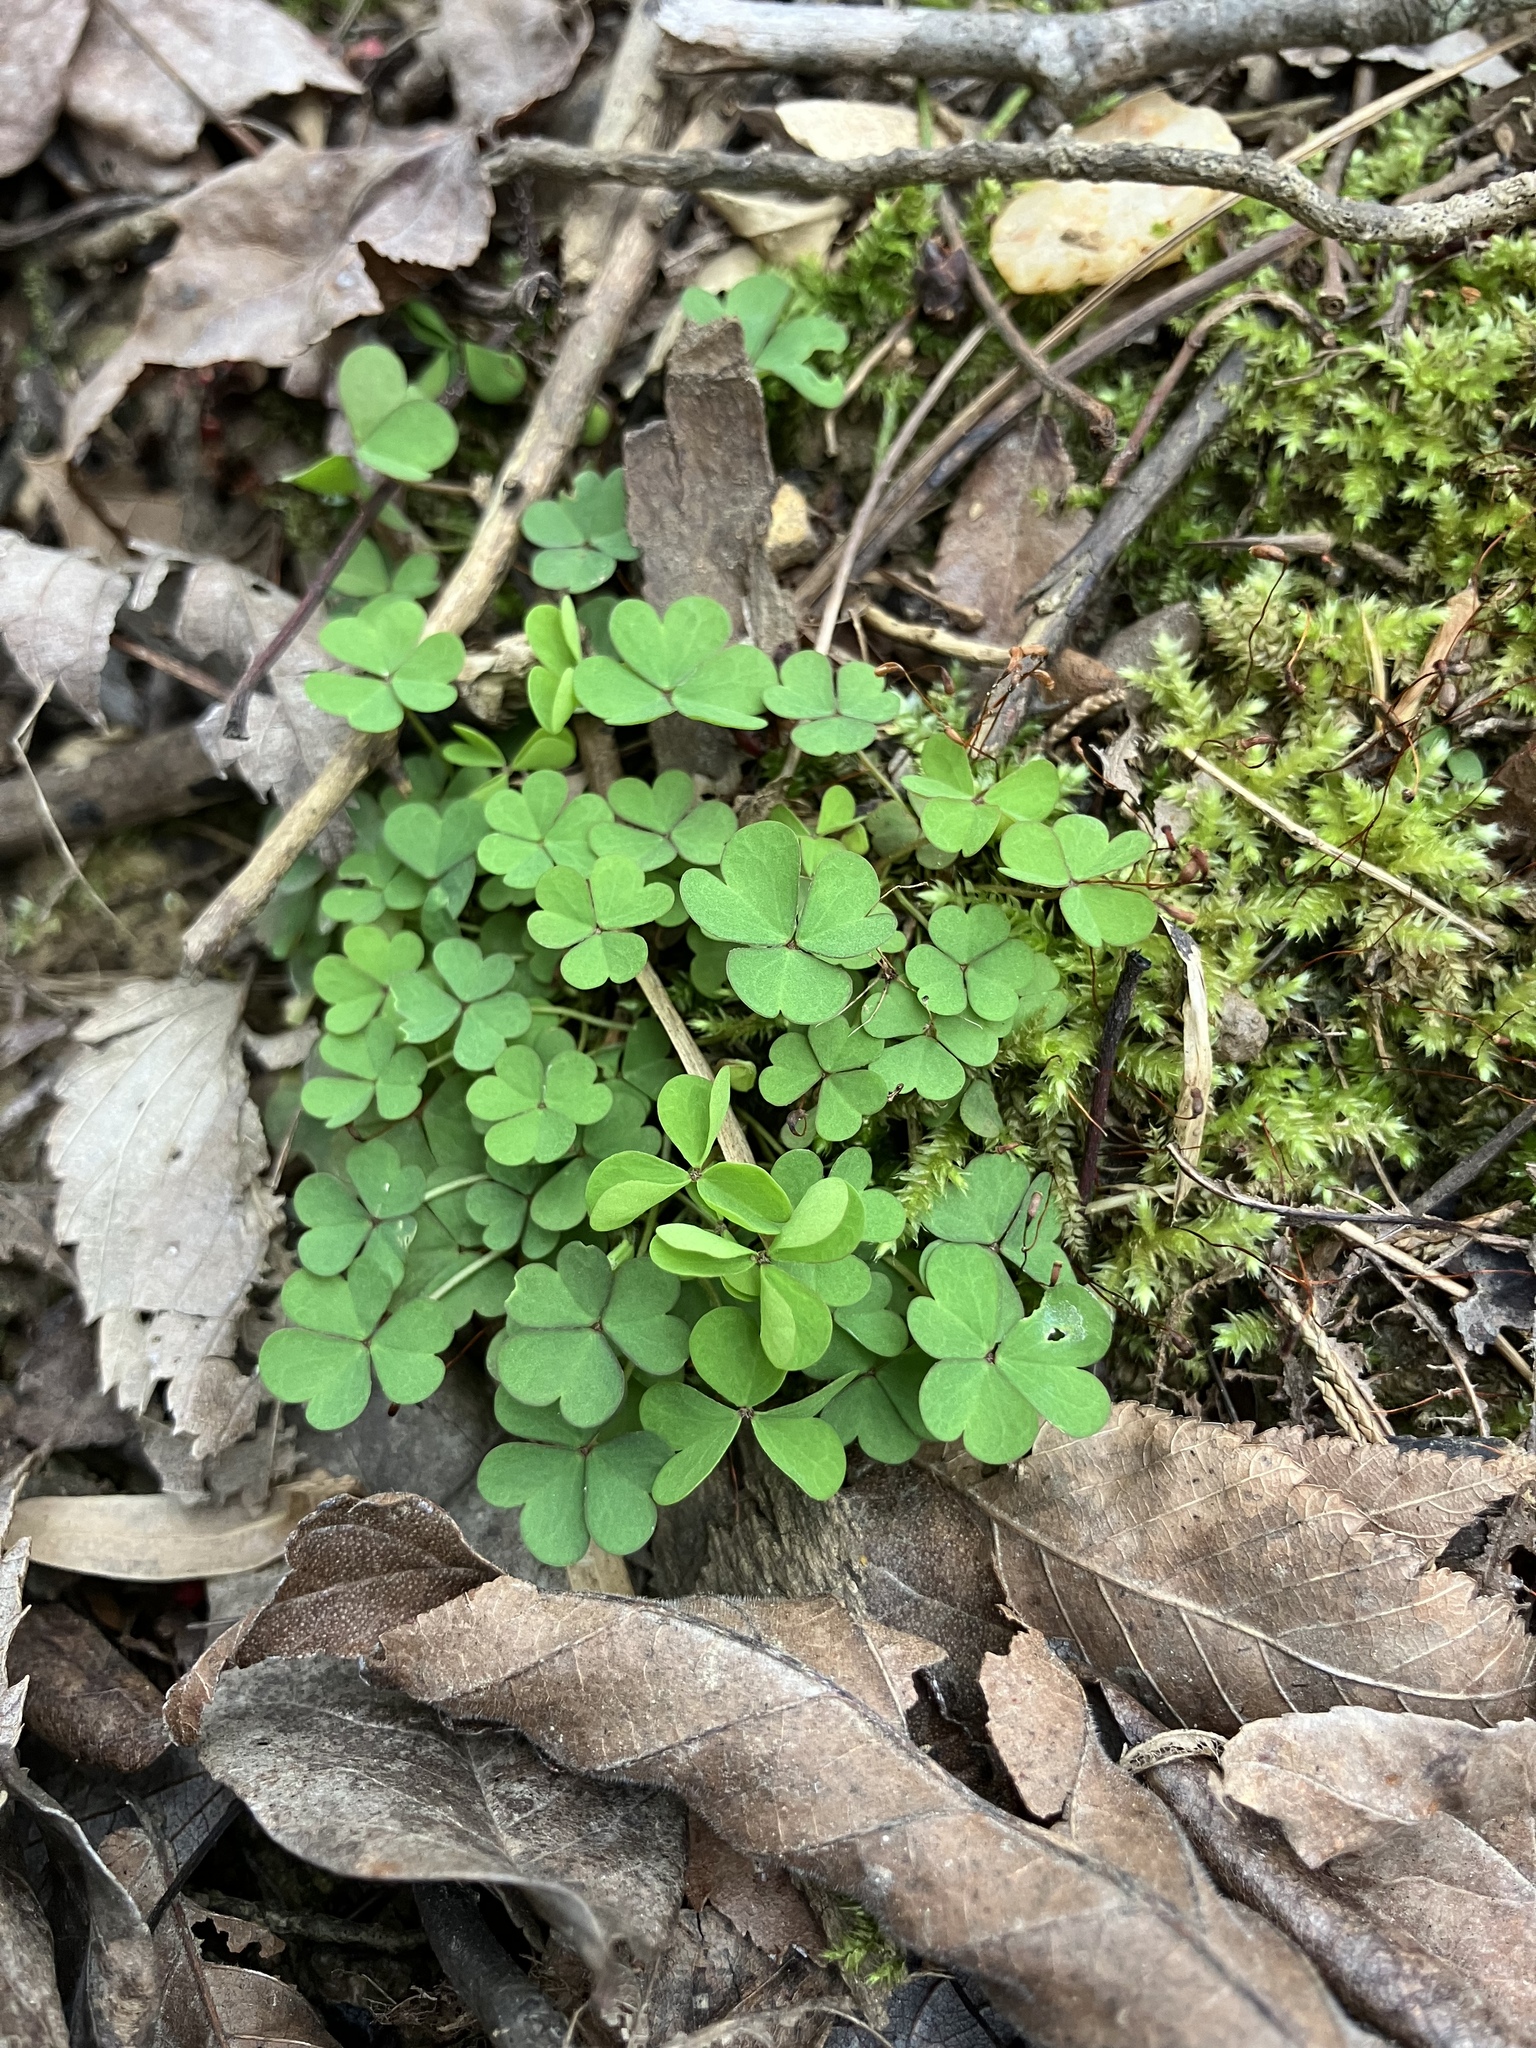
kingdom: Plantae
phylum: Tracheophyta
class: Magnoliopsida
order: Oxalidales
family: Oxalidaceae
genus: Oxalis
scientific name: Oxalis violacea
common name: Violet wood-sorrel
